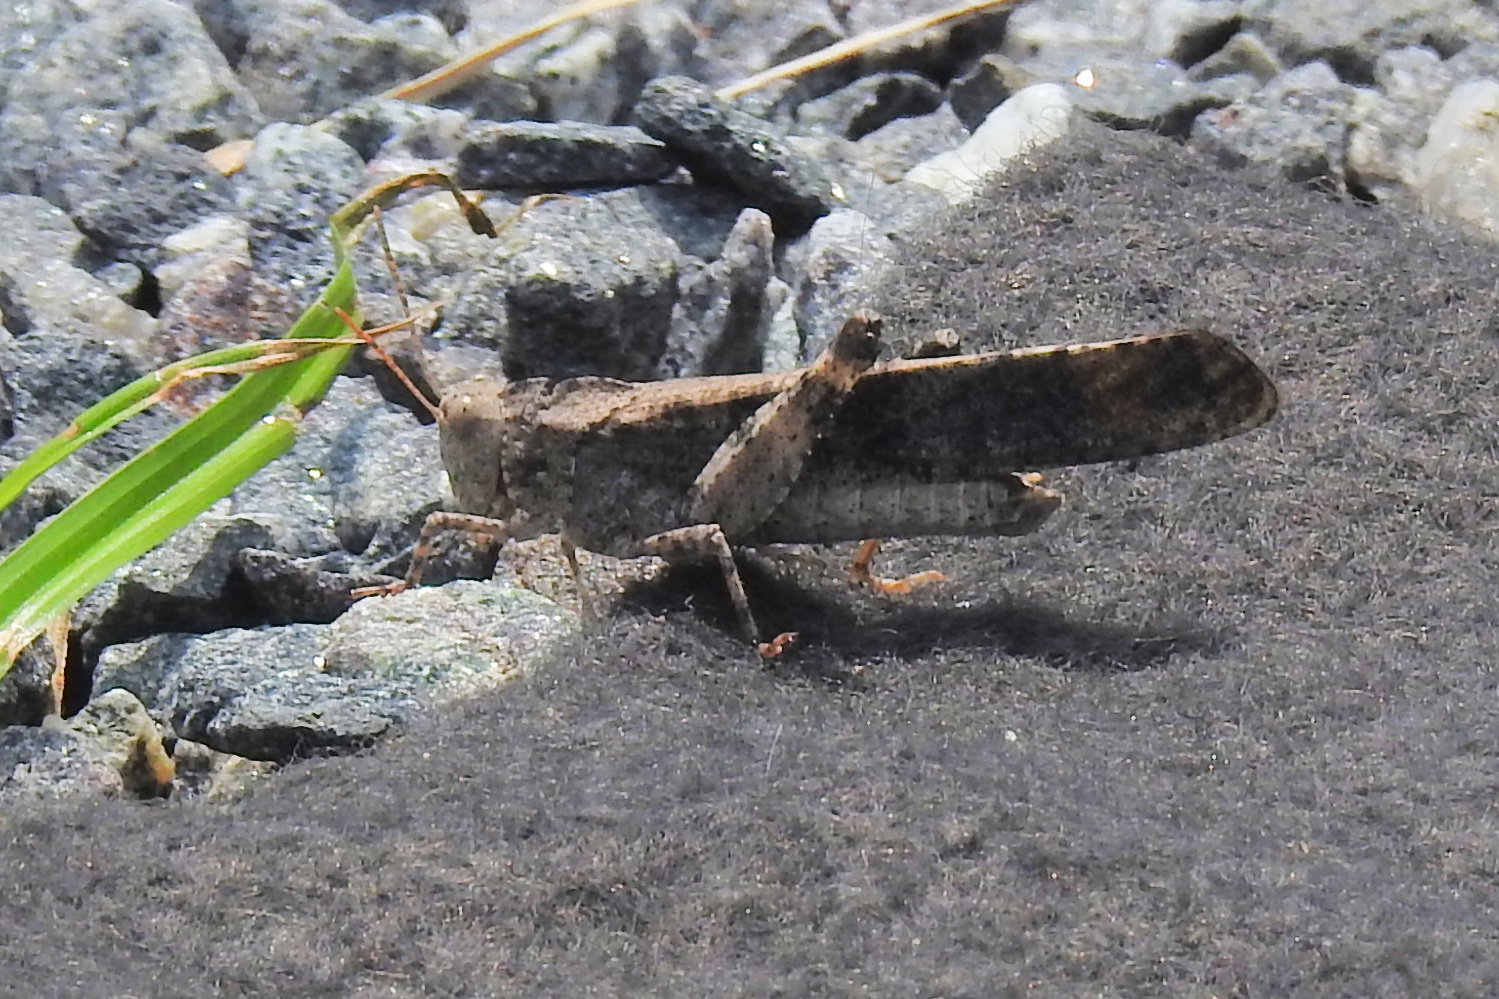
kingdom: Animalia
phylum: Arthropoda
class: Insecta
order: Orthoptera
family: Acrididae
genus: Dissosteira
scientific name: Dissosteira carolina
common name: Carolina grasshopper
